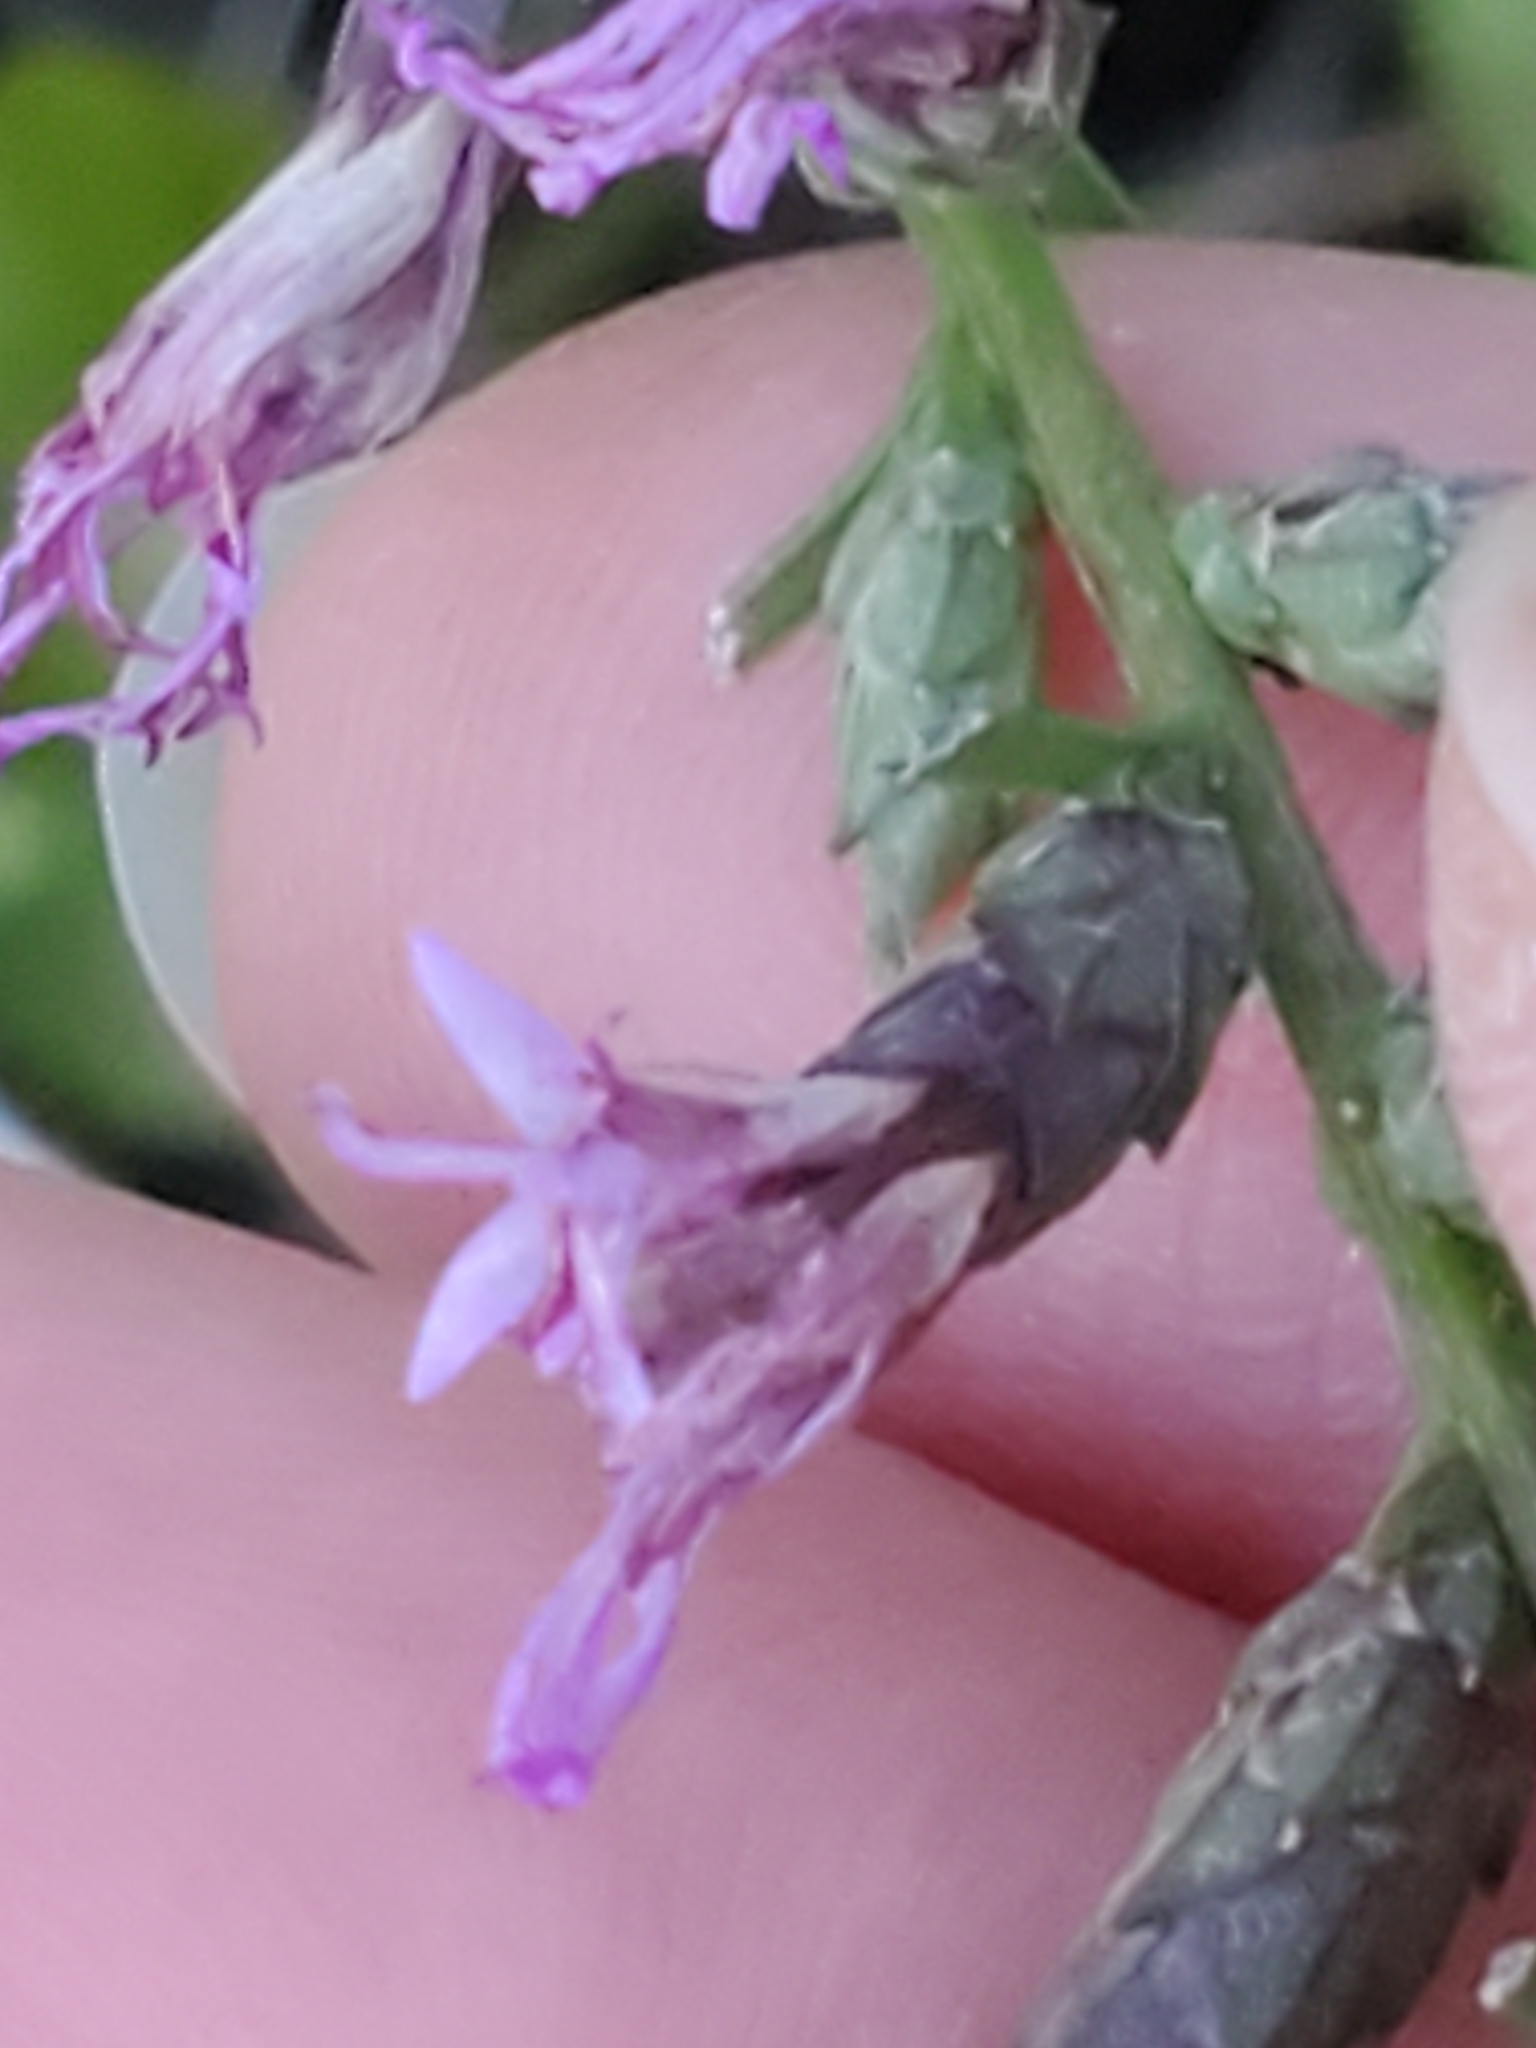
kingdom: Plantae
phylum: Tracheophyta
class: Magnoliopsida
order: Asterales
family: Asteraceae
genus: Liatris
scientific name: Liatris punctata
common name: Dotted gayfeather
